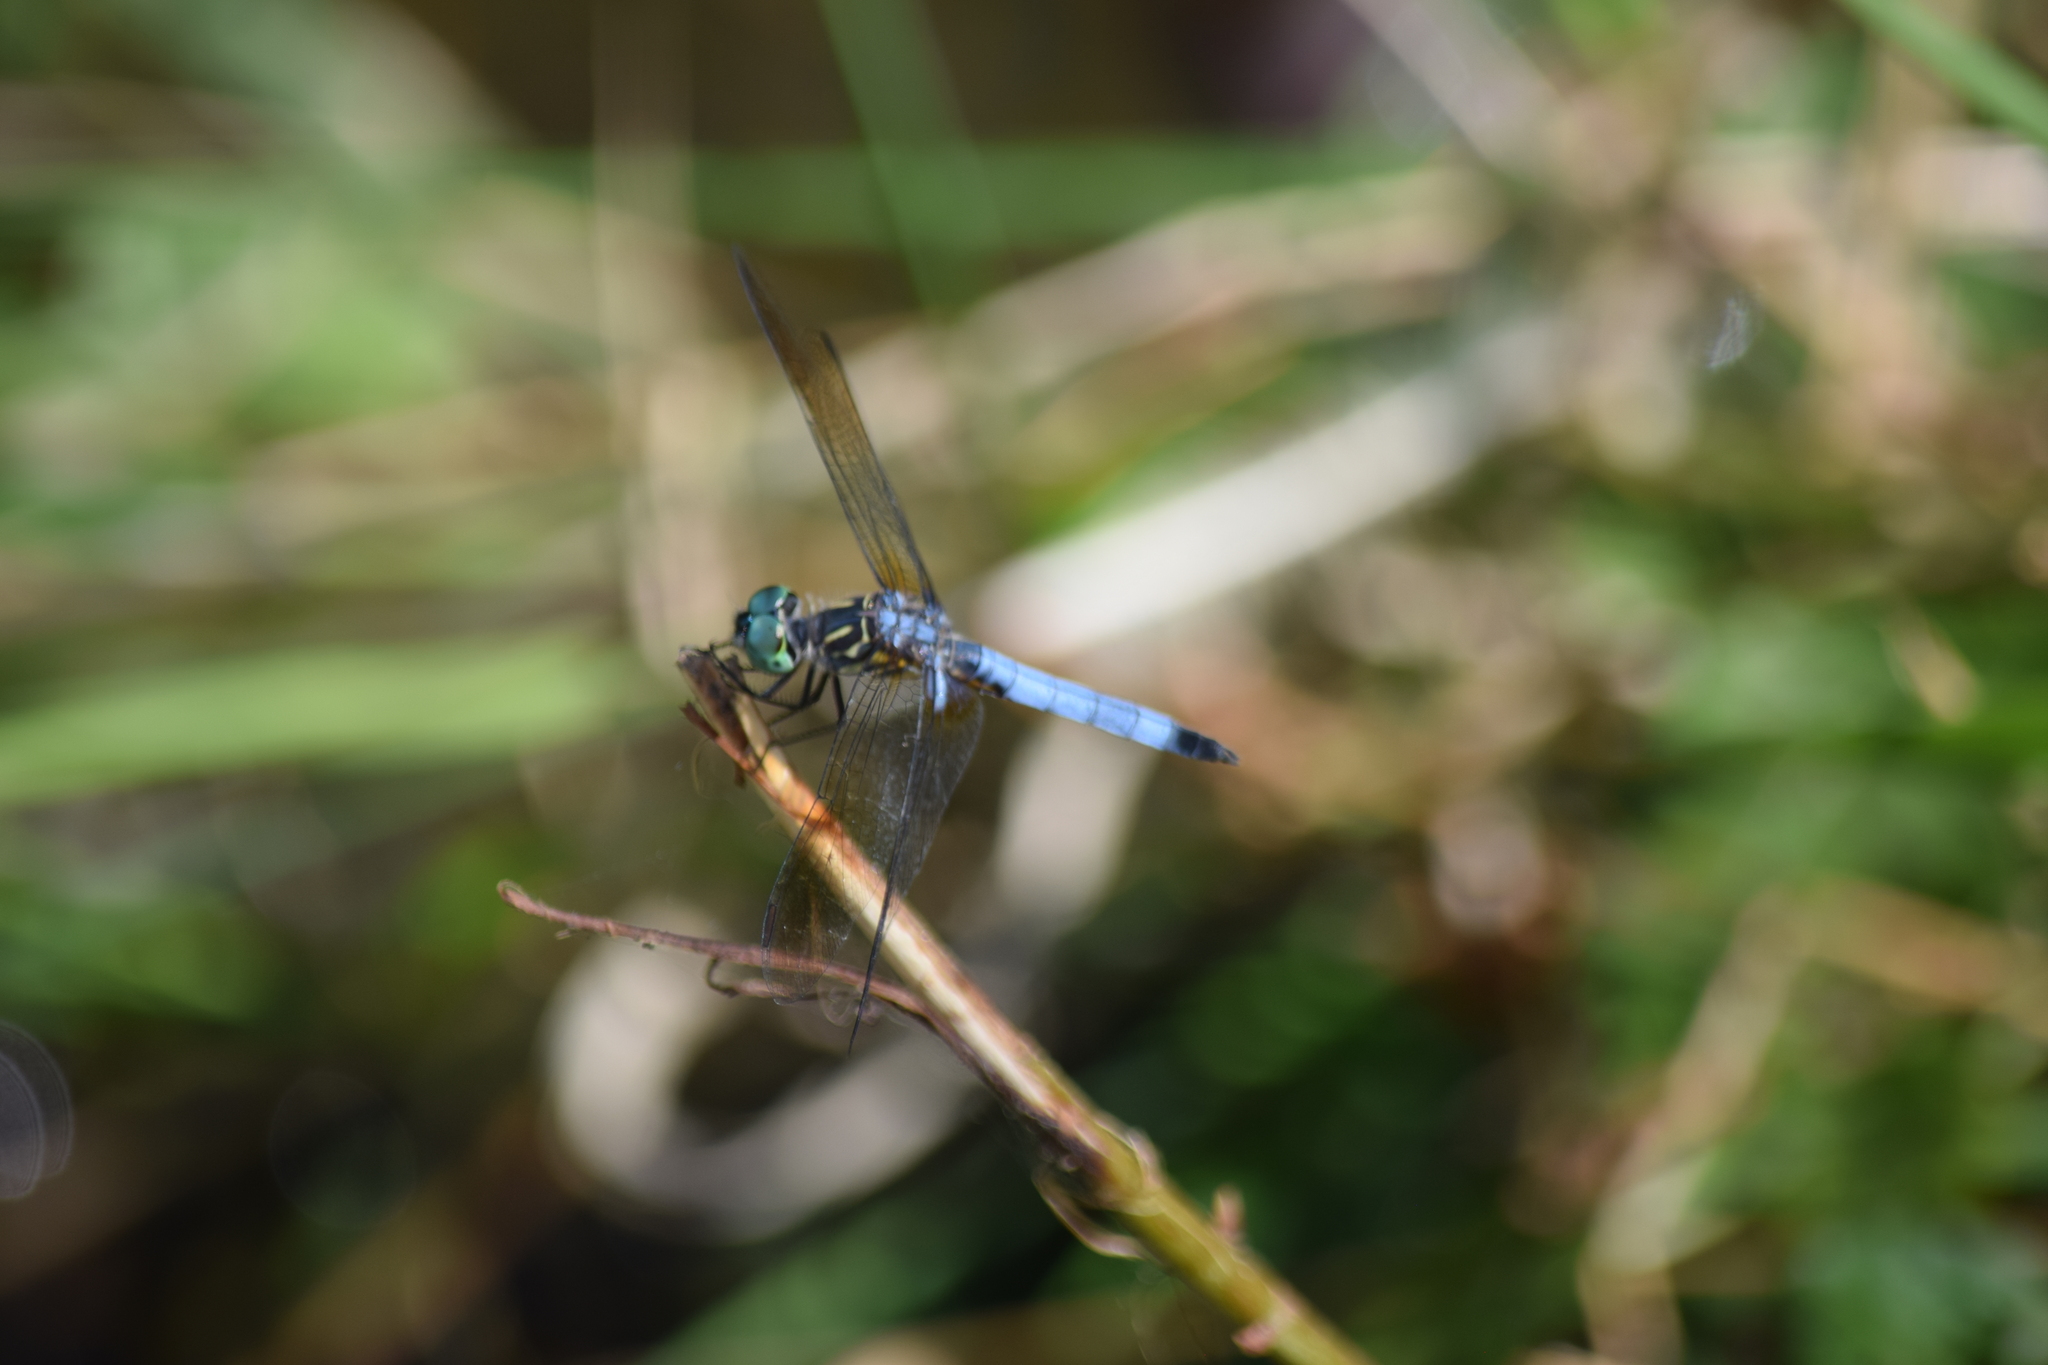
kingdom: Animalia
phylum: Arthropoda
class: Insecta
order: Odonata
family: Libellulidae
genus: Pachydiplax
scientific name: Pachydiplax longipennis
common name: Blue dasher
